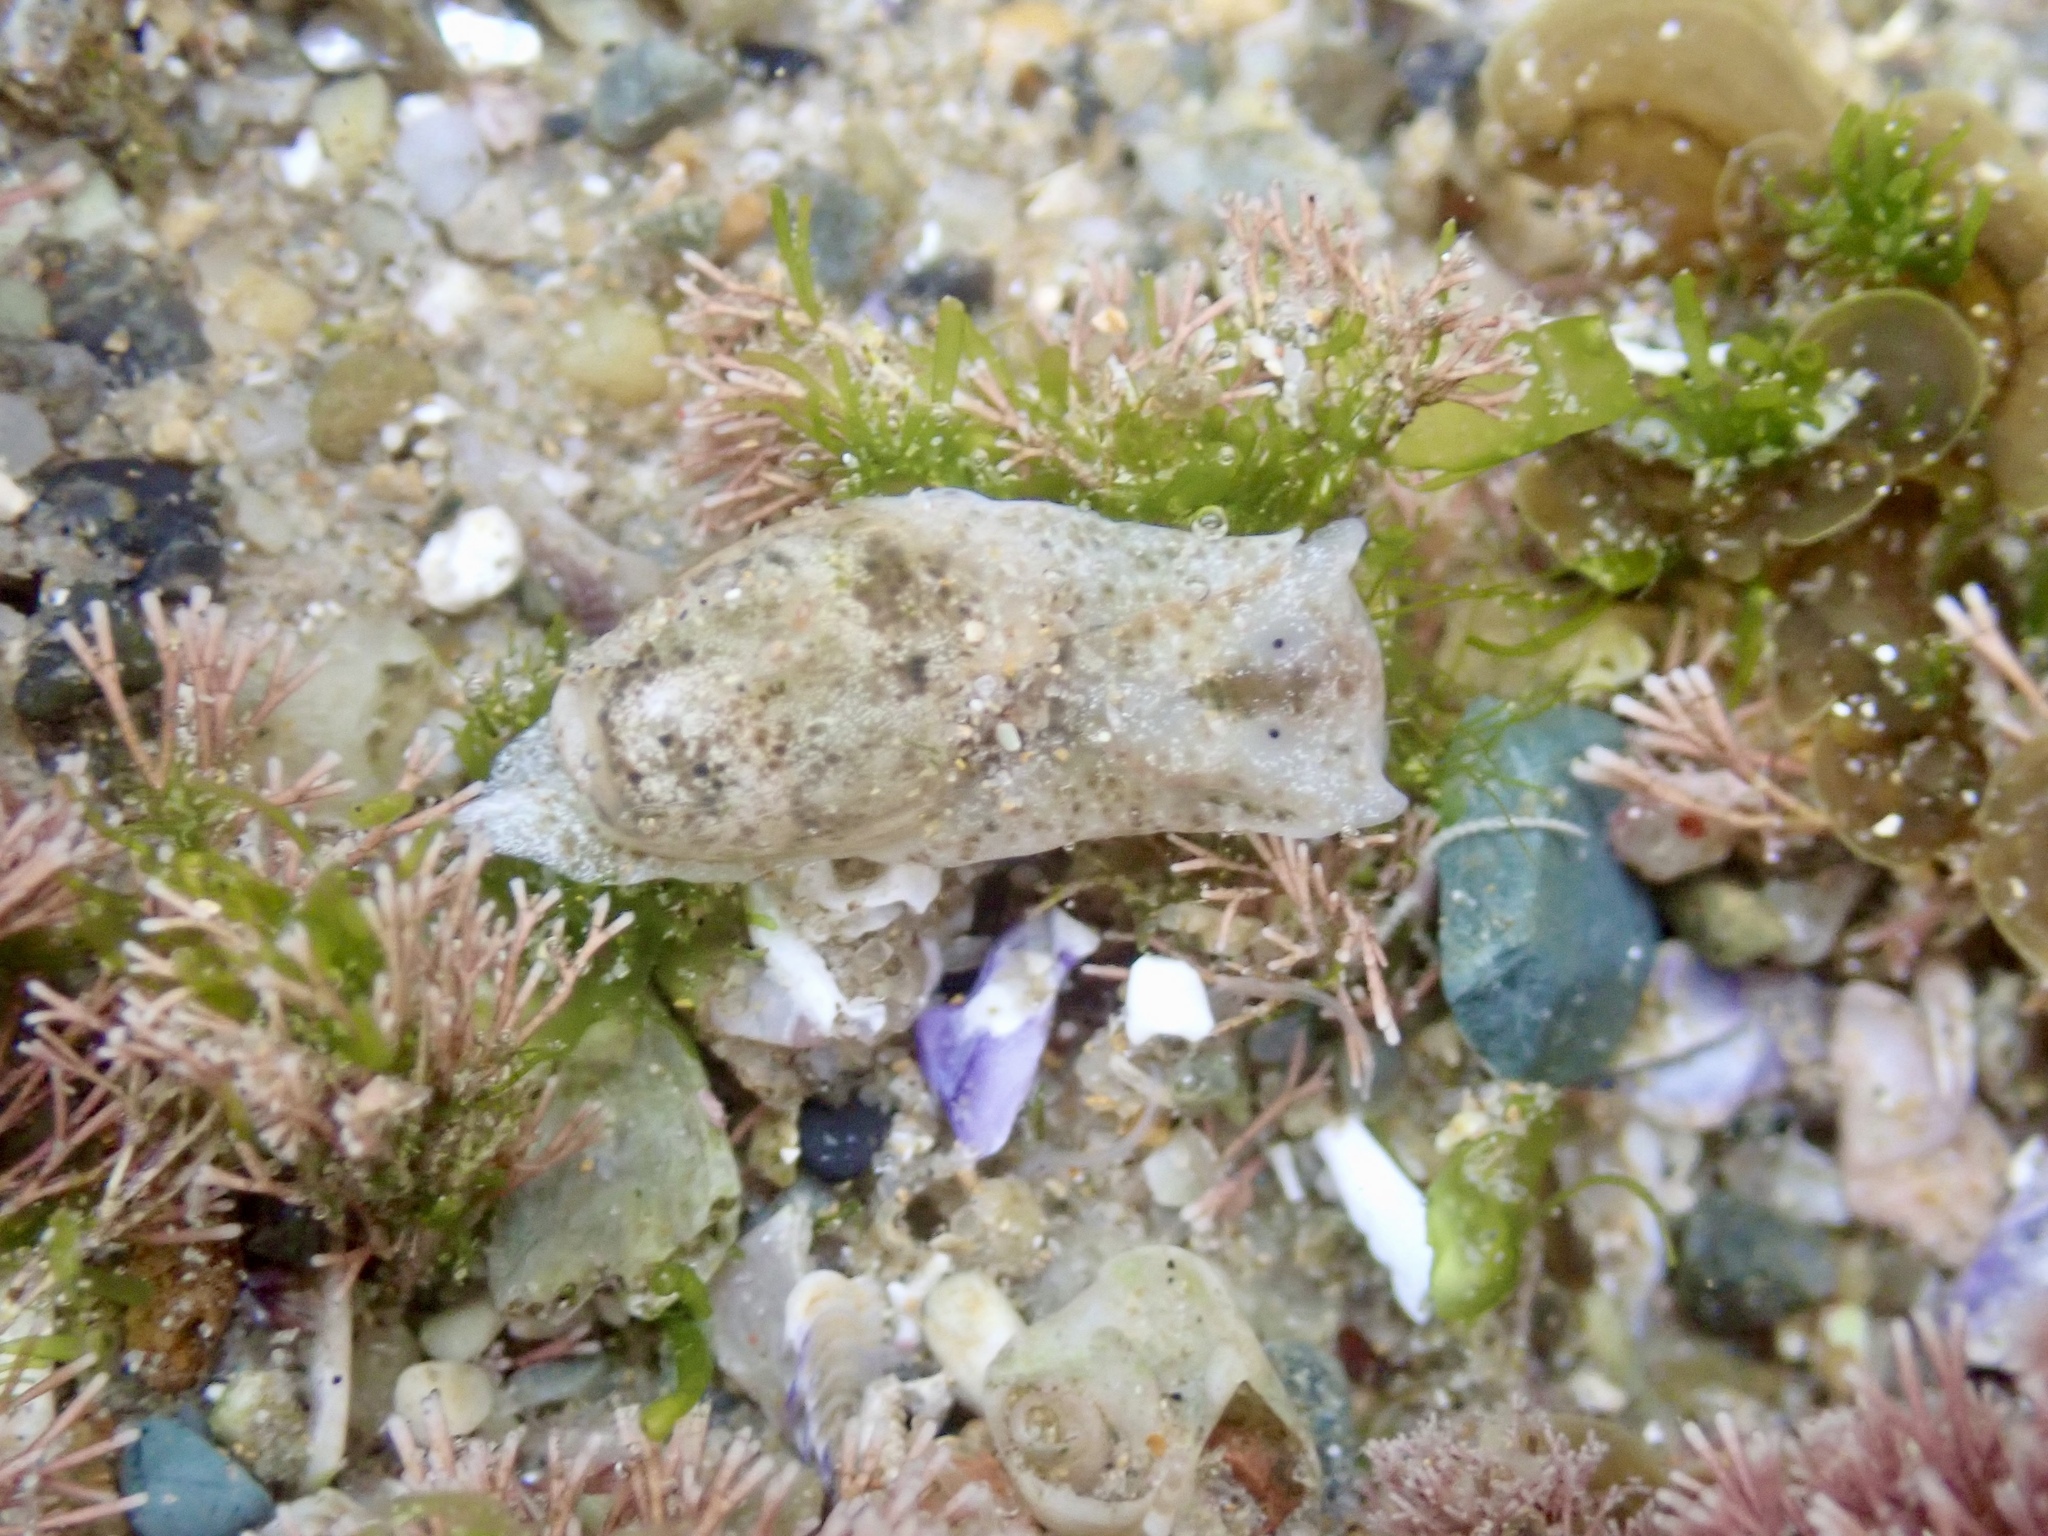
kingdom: Animalia
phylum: Mollusca
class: Gastropoda
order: Cephalaspidea
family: Haminoeidae
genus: Haloa
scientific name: Haloa musetta
